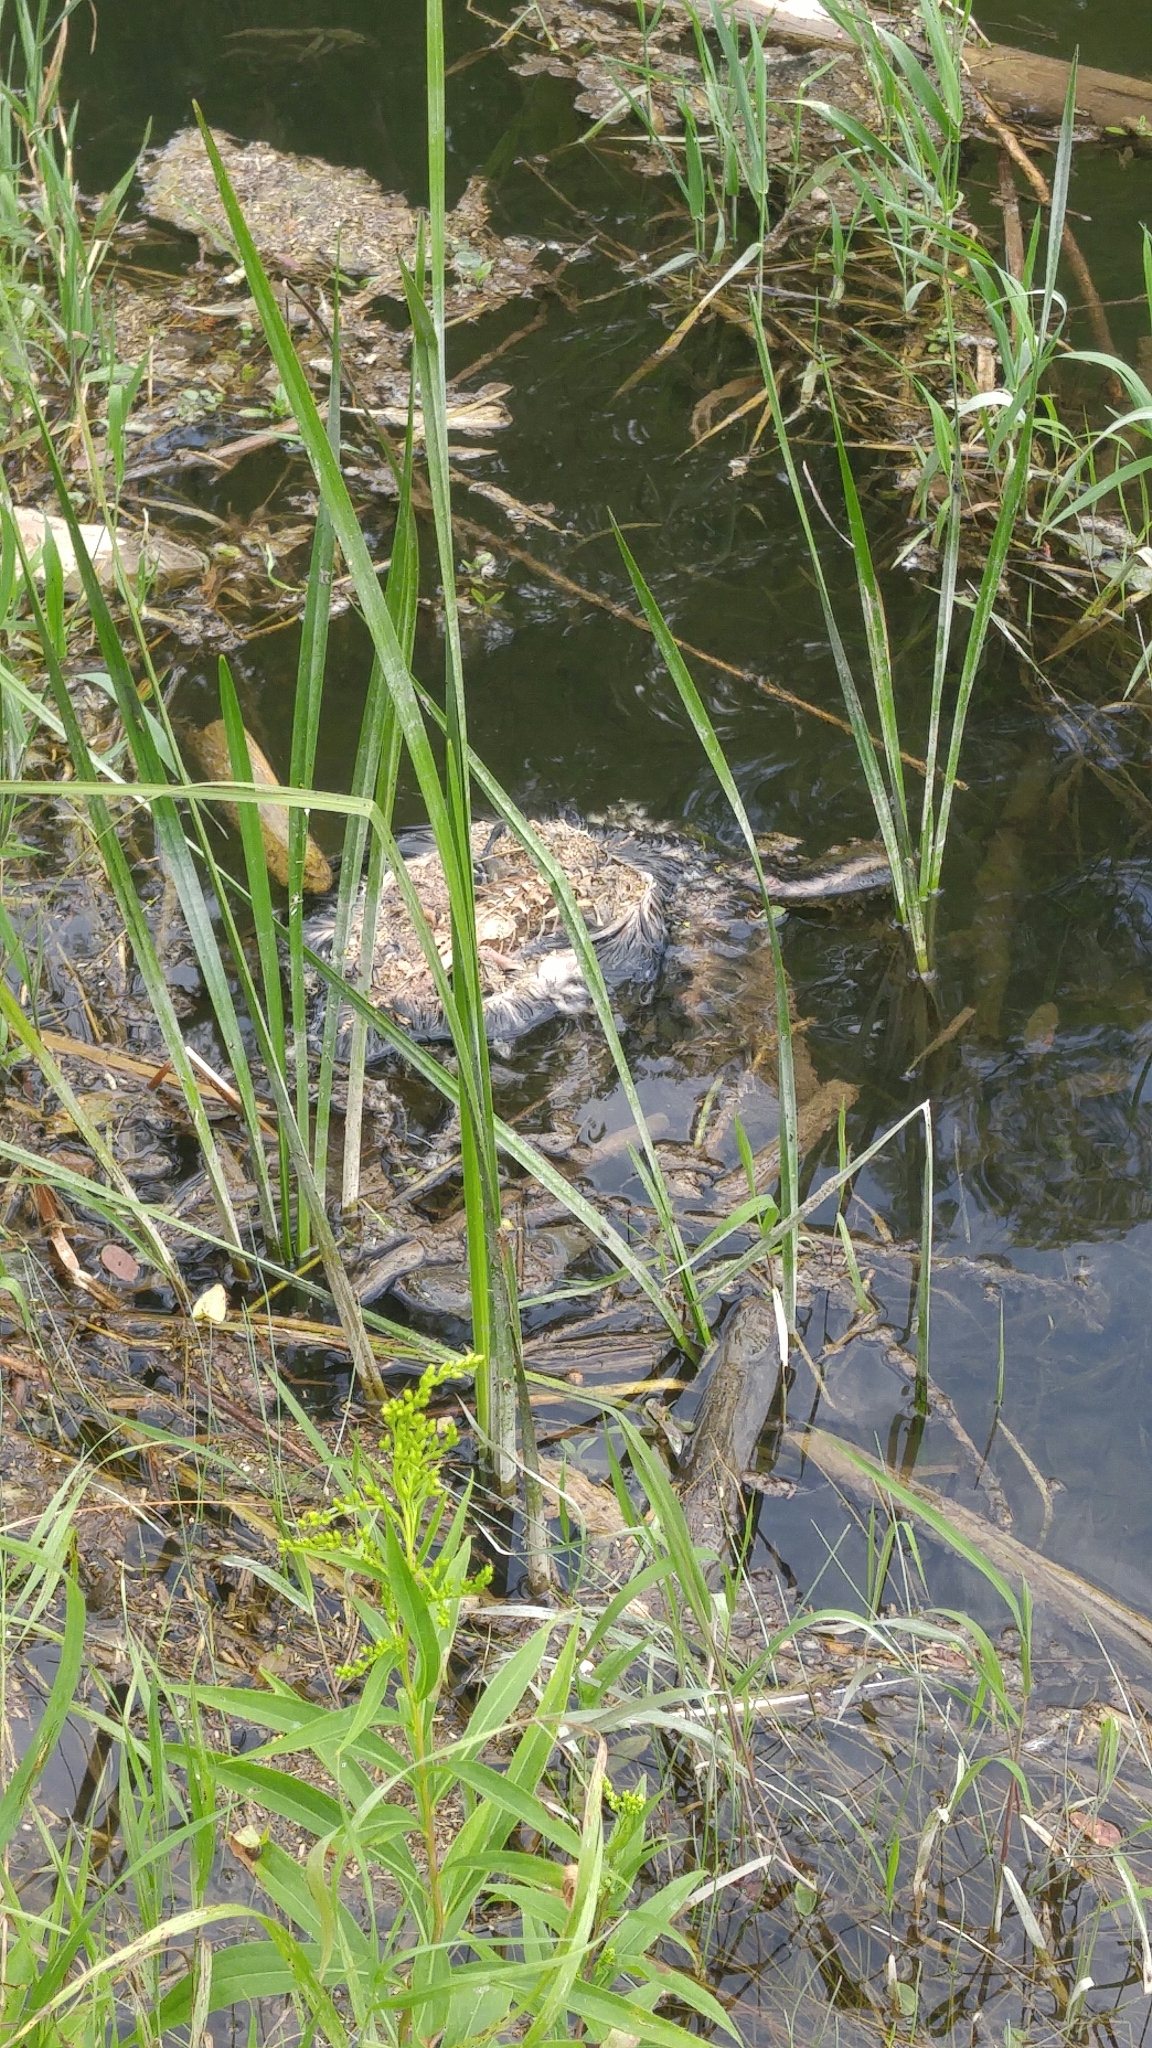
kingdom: Animalia
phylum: Chordata
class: Aves
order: Suliformes
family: Phalacrocoracidae
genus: Phalacrocorax
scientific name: Phalacrocorax auritus
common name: Double-crested cormorant
